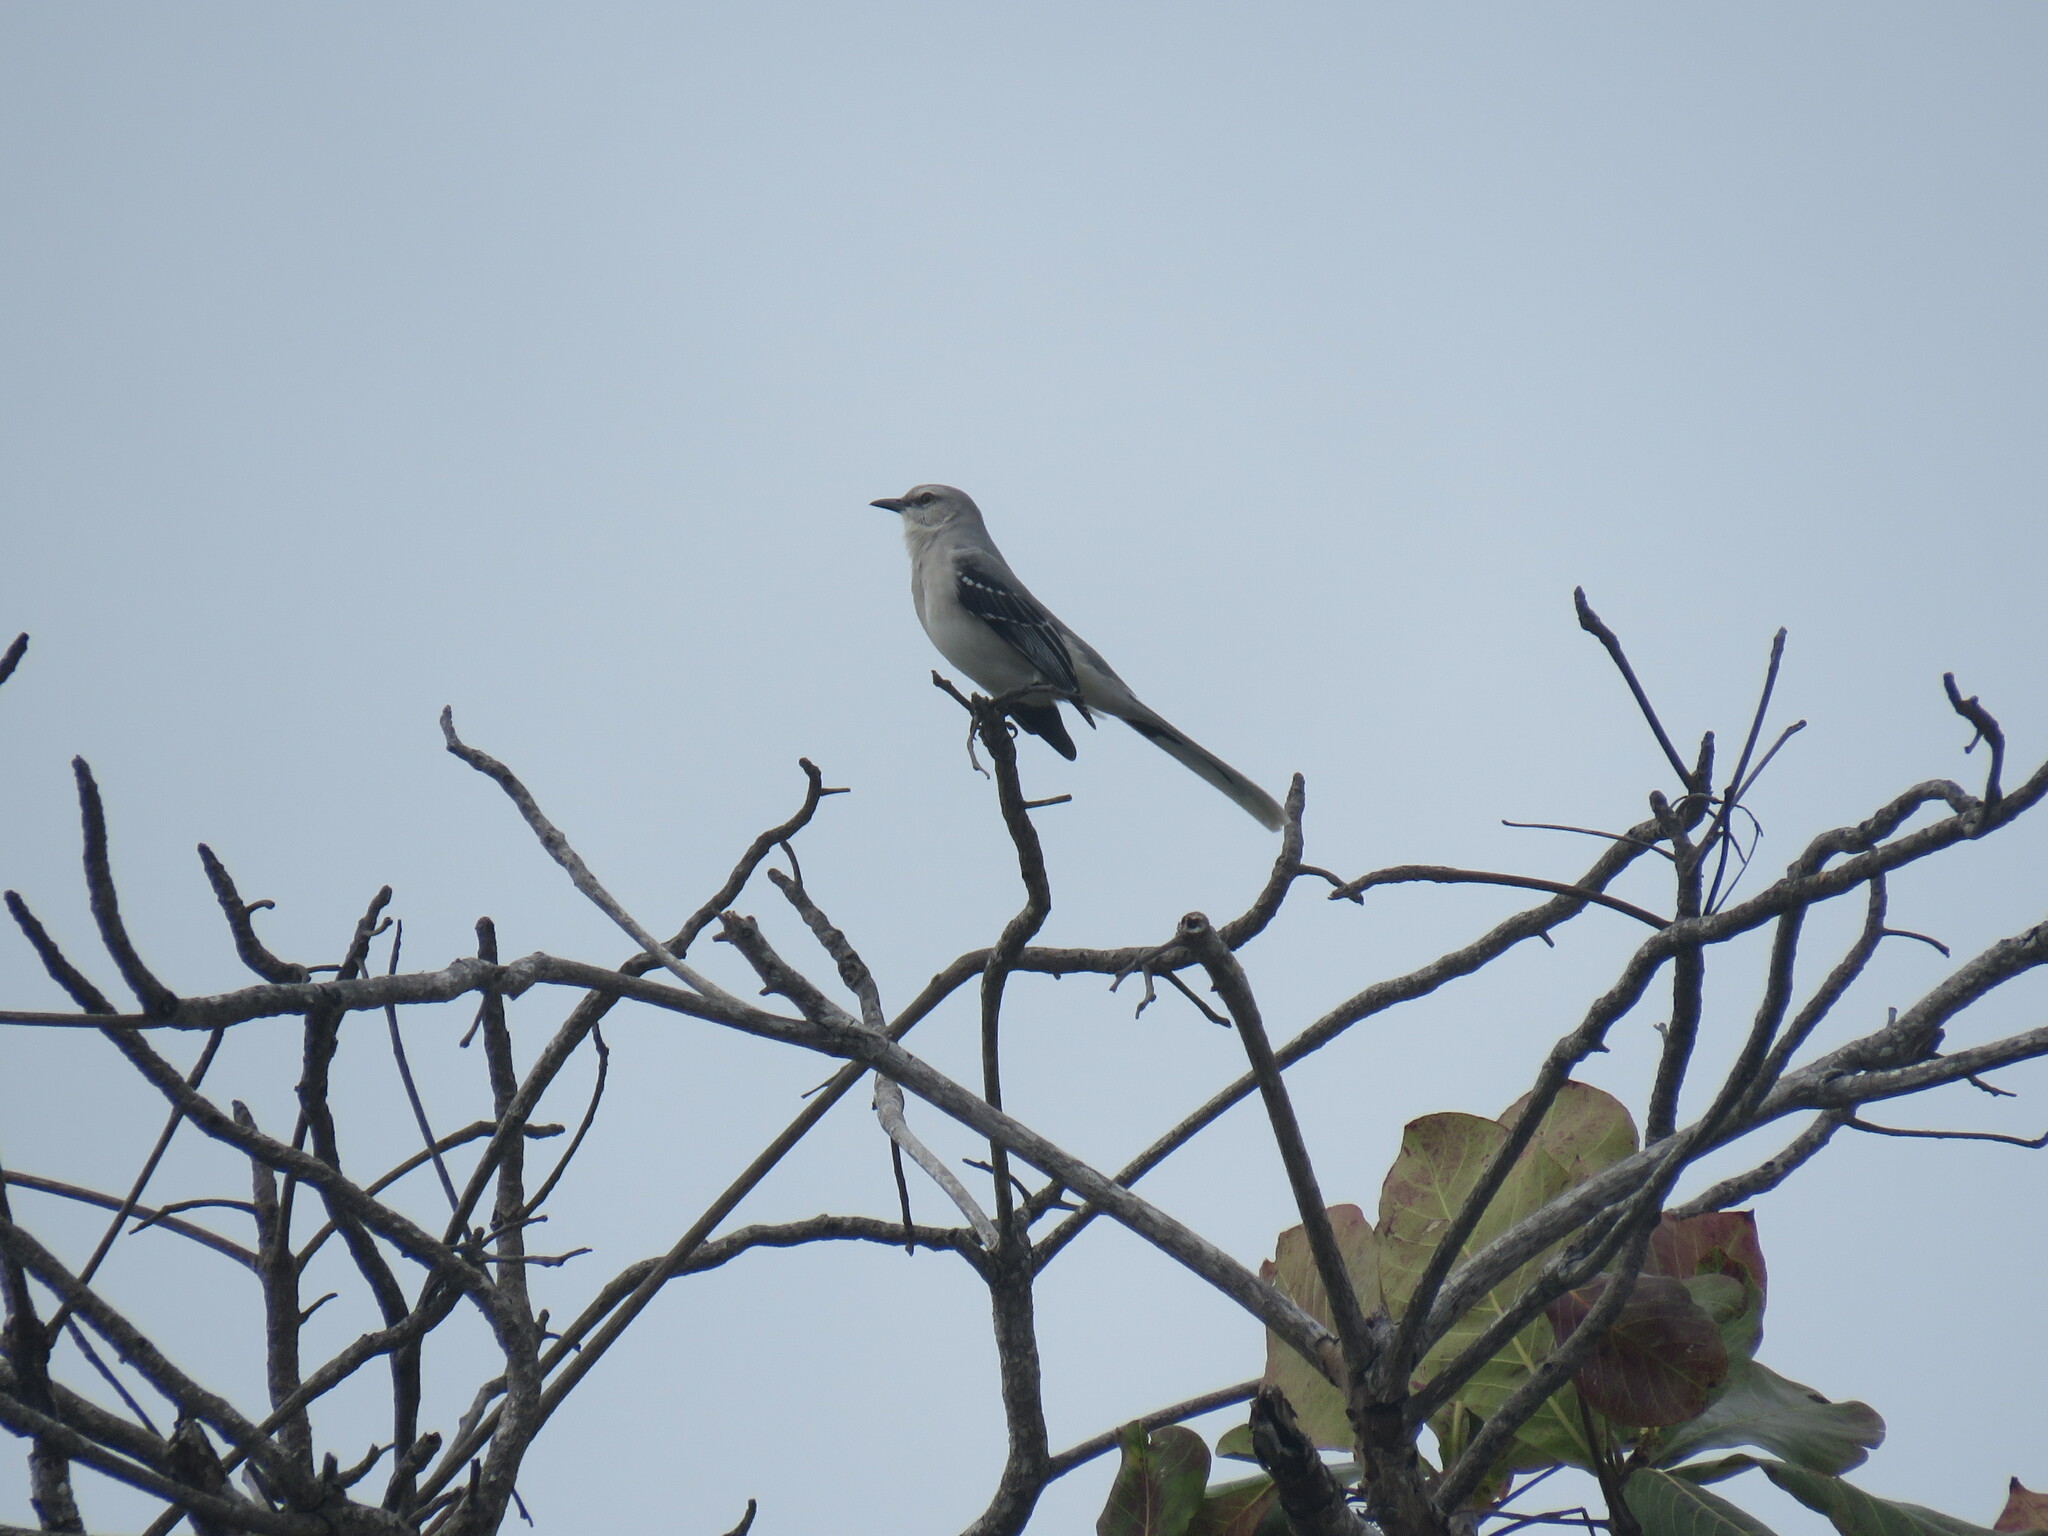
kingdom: Animalia
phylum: Chordata
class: Aves
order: Passeriformes
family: Mimidae
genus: Mimus
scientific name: Mimus gilvus
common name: Tropical mockingbird
